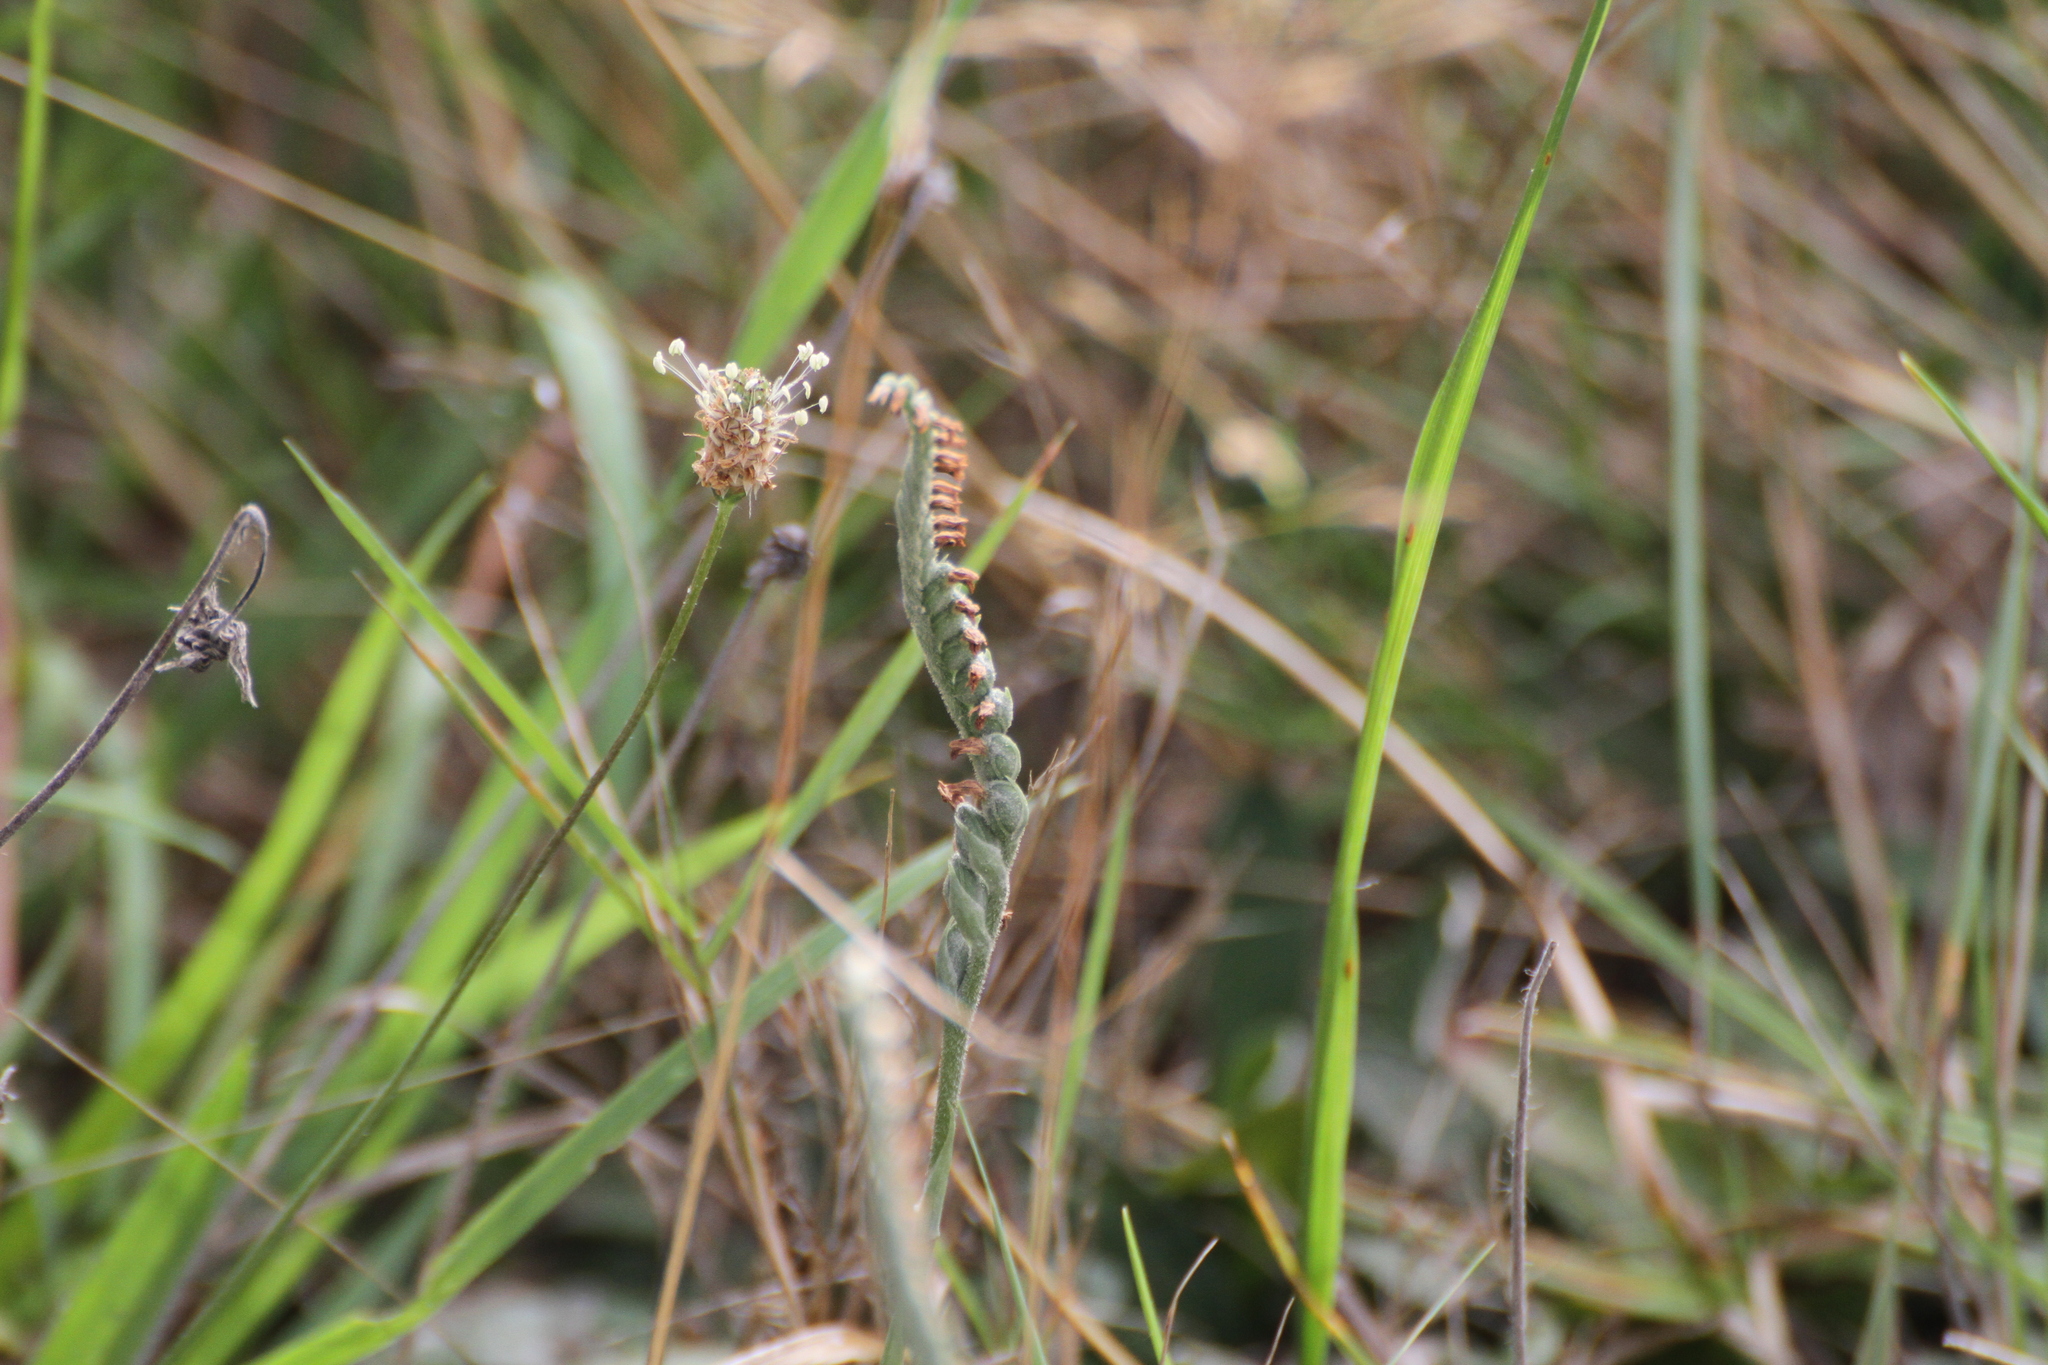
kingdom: Plantae
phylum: Tracheophyta
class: Liliopsida
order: Asparagales
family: Orchidaceae
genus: Spiranthes
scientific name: Spiranthes spiralis
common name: Autumn lady's-tresses
